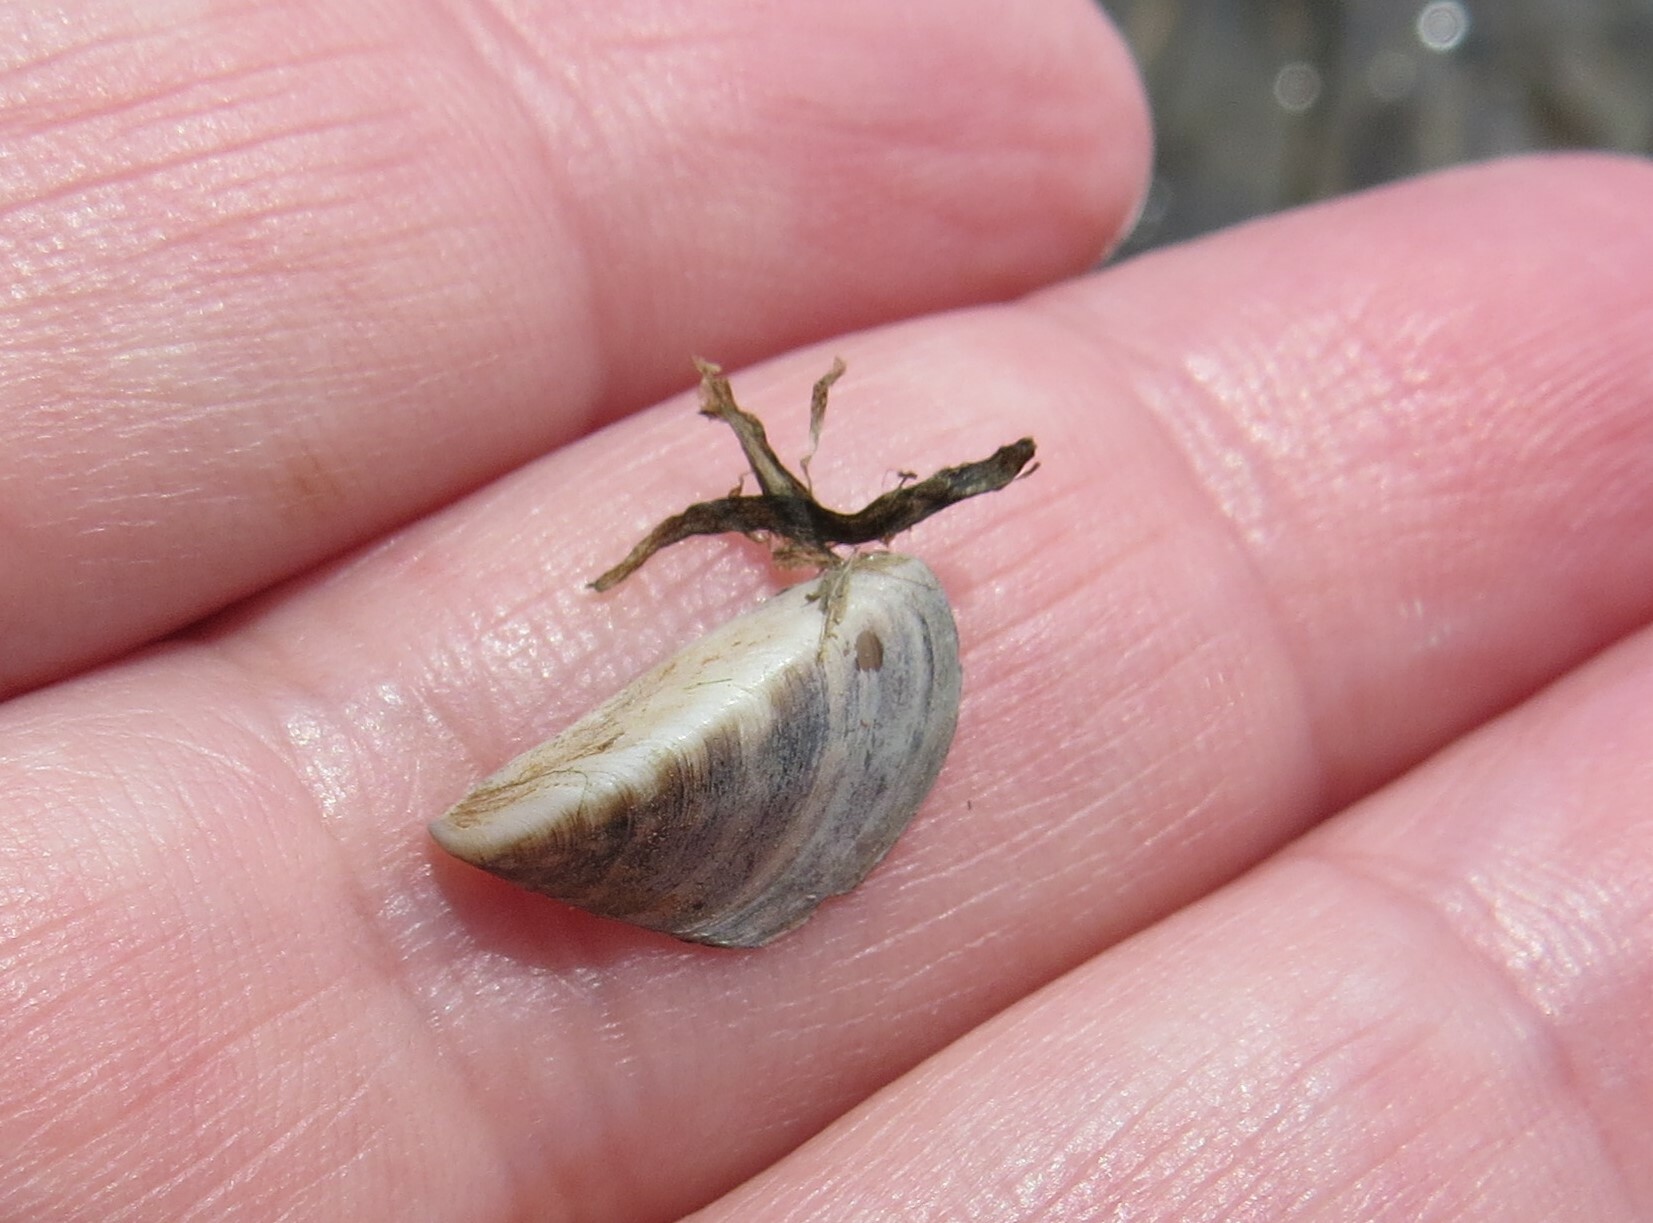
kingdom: Animalia
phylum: Mollusca
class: Bivalvia
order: Myida
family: Dreissenidae
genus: Dreissena
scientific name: Dreissena polymorpha
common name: Zebra mussel
